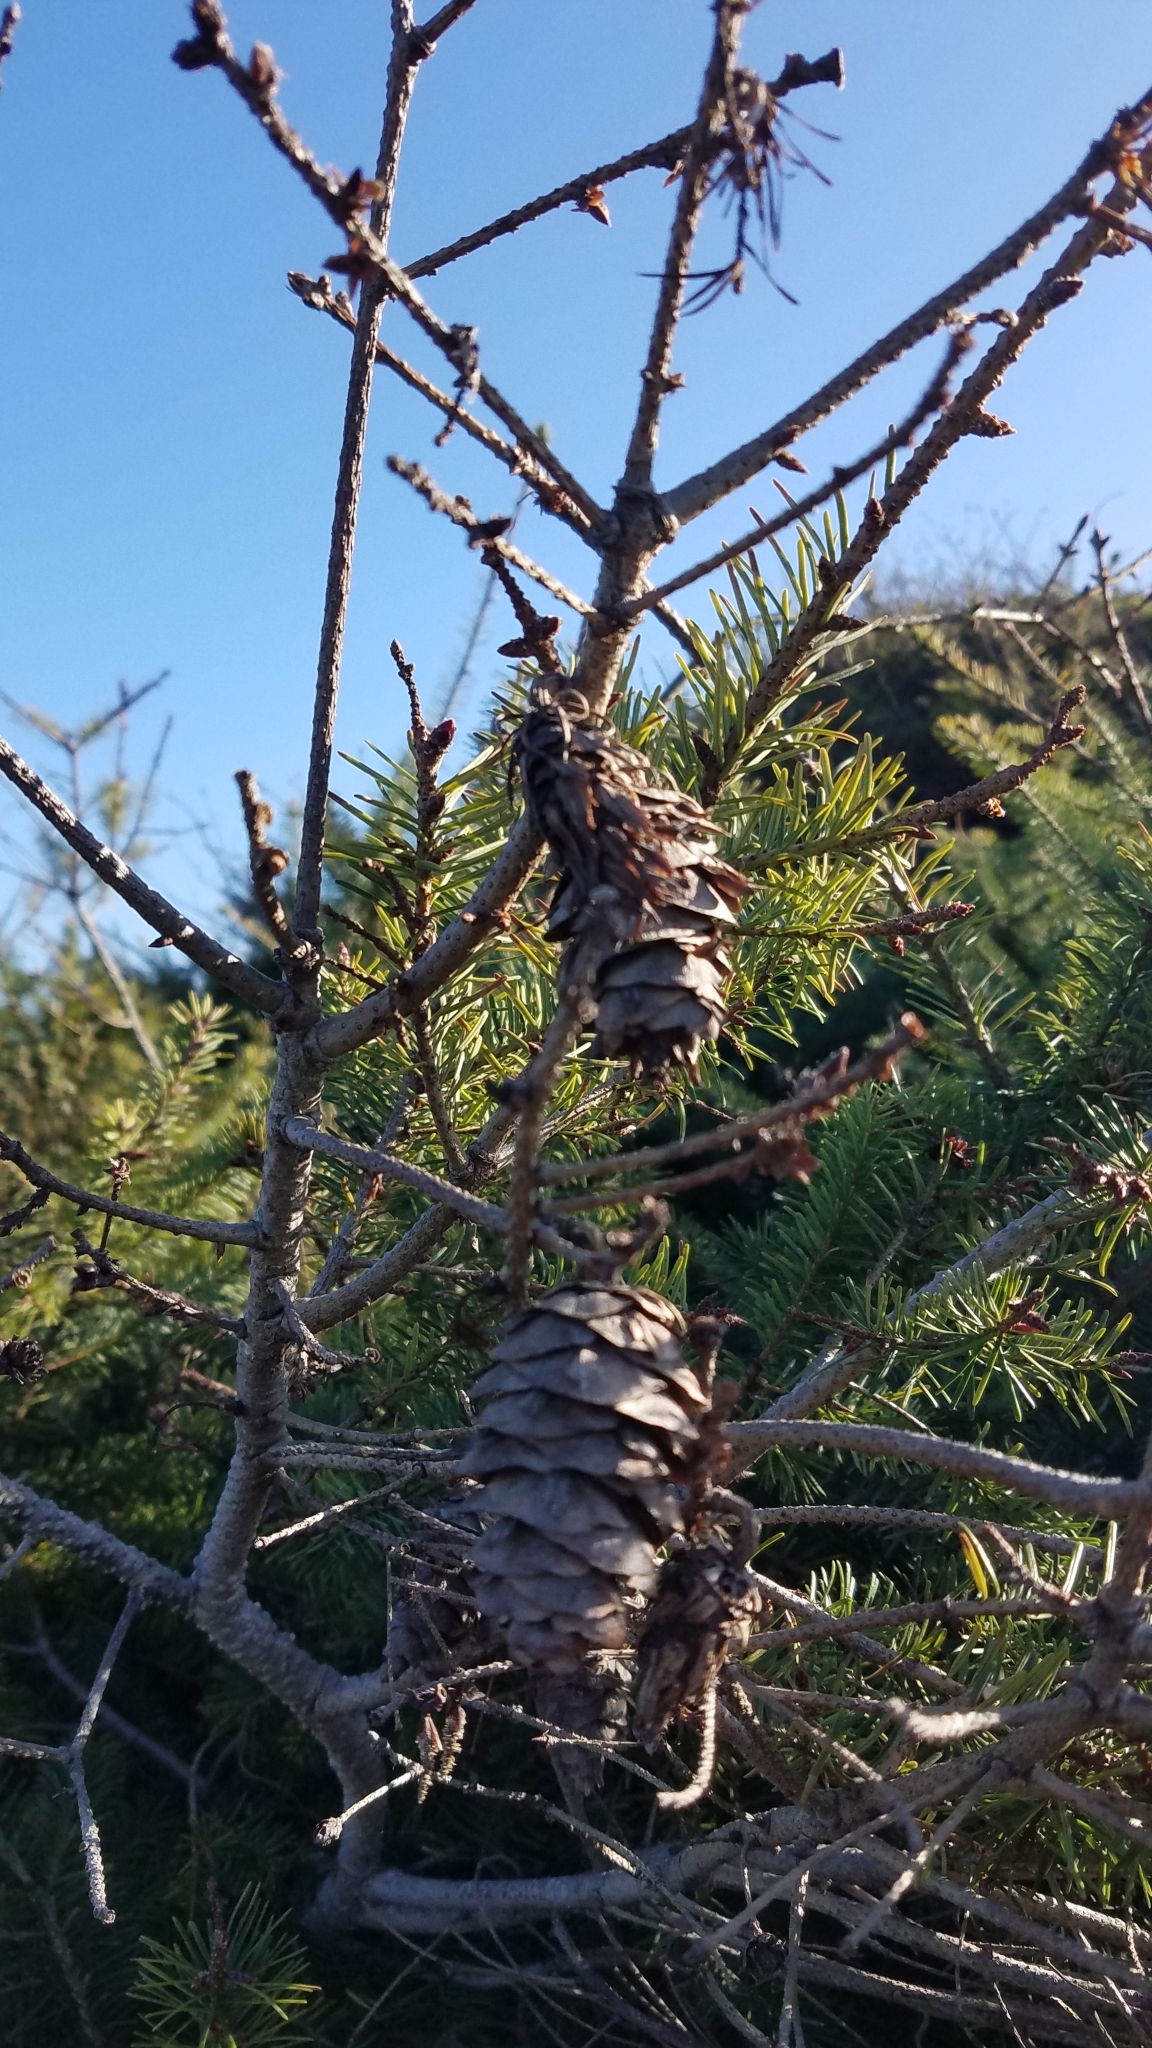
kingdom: Plantae
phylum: Tracheophyta
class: Pinopsida
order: Pinales
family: Pinaceae
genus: Pseudotsuga
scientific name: Pseudotsuga menziesii
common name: Douglas fir
